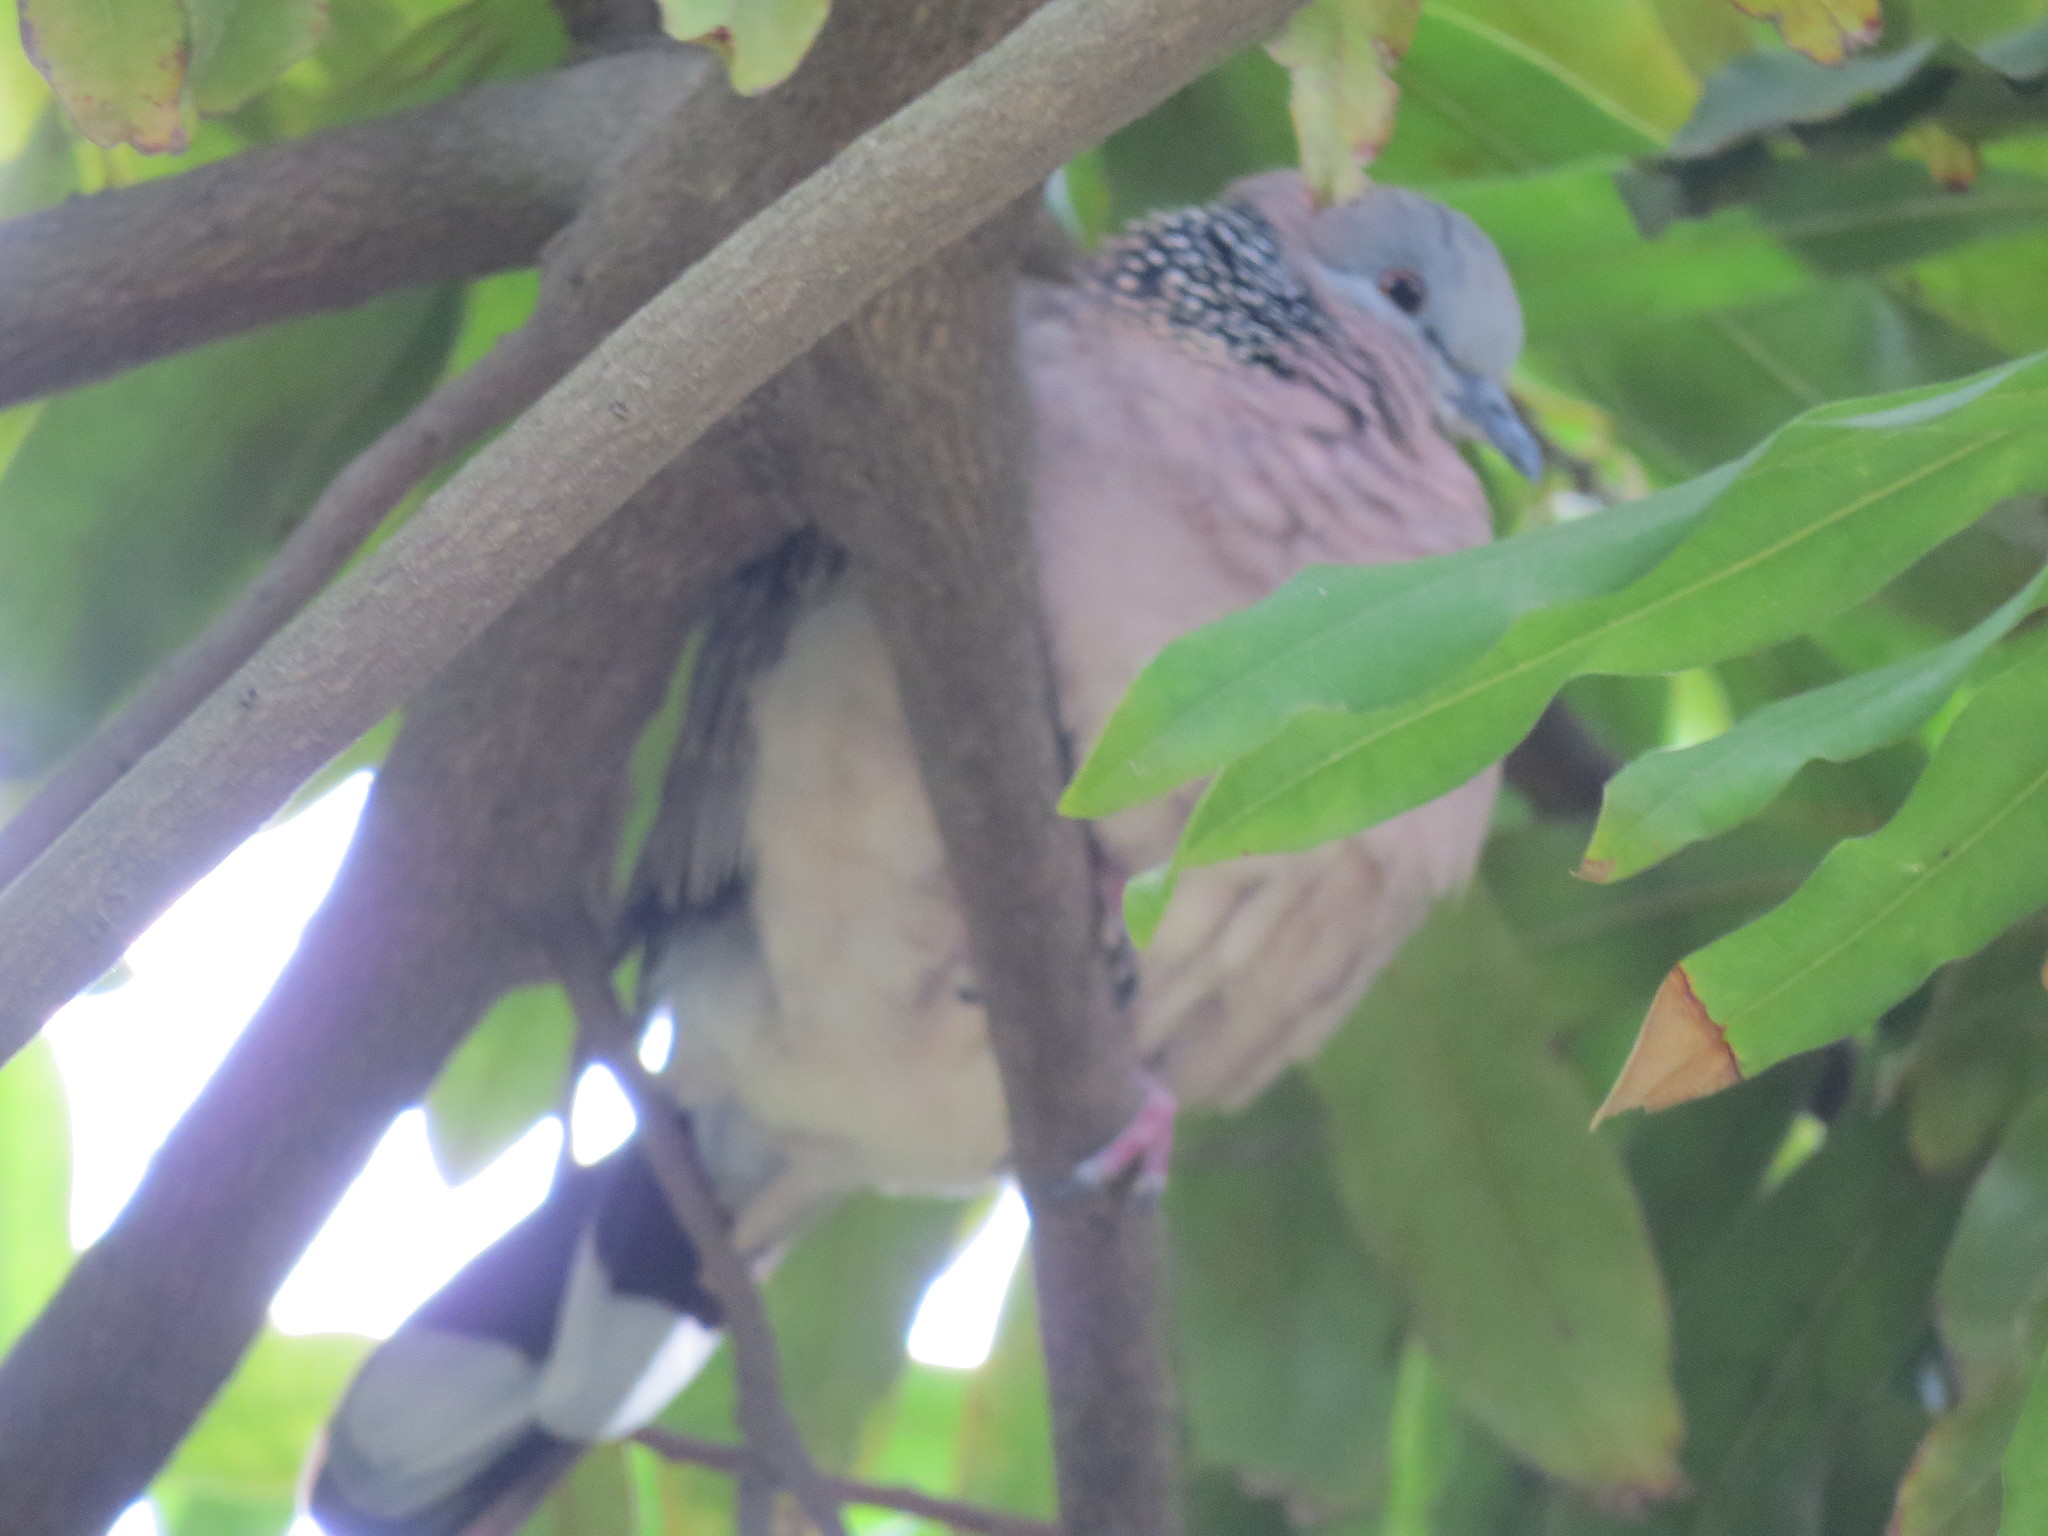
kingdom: Animalia
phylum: Chordata
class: Aves
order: Columbiformes
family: Columbidae
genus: Spilopelia
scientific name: Spilopelia chinensis
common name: Spotted dove
